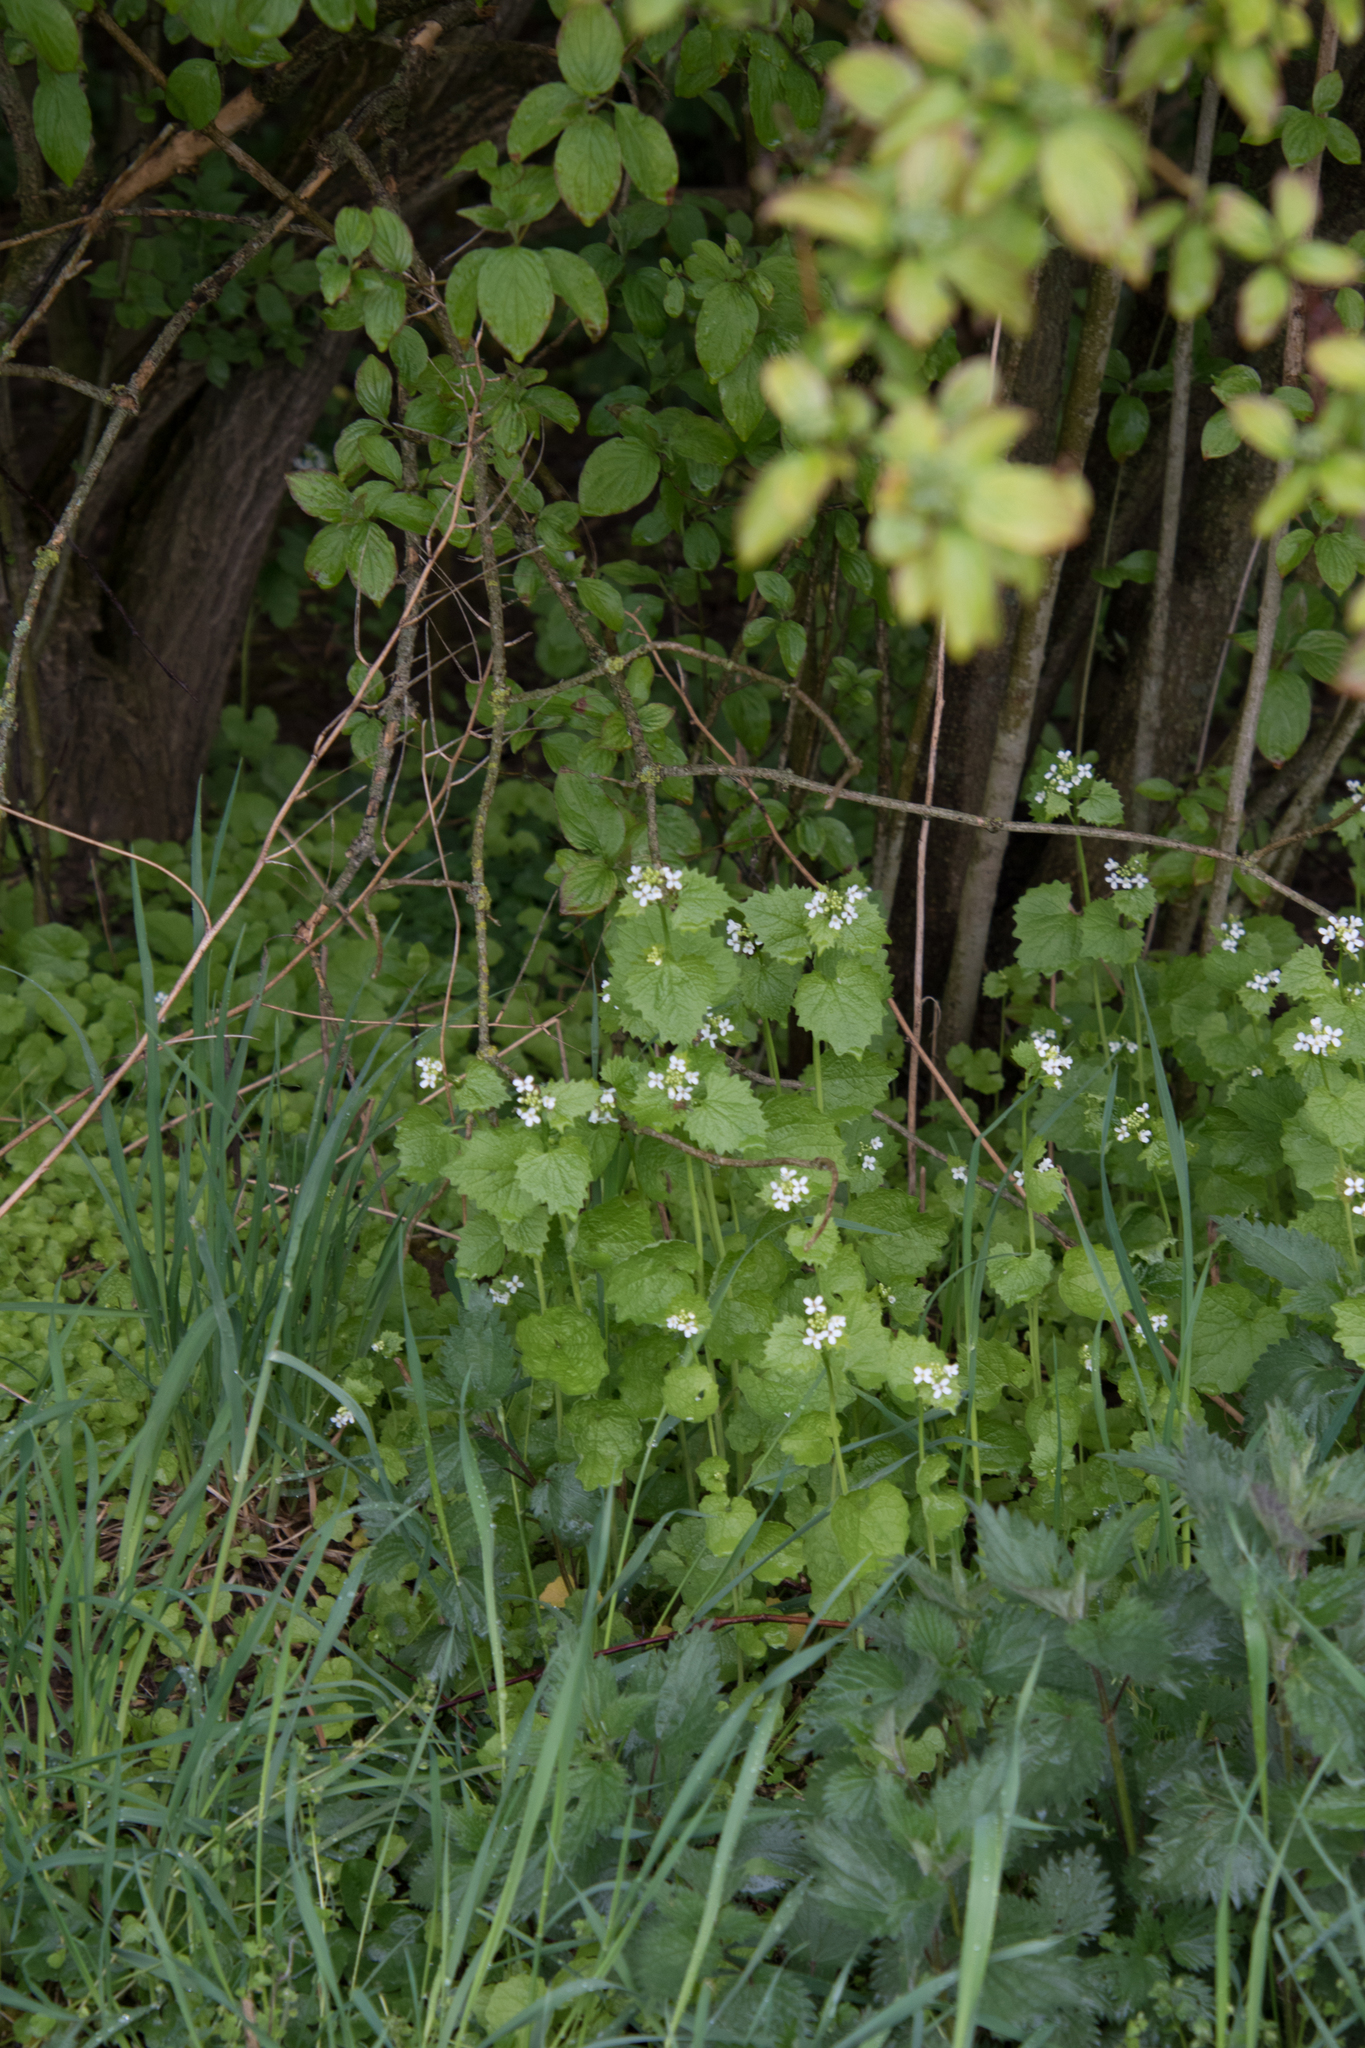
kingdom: Plantae
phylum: Tracheophyta
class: Magnoliopsida
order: Brassicales
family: Brassicaceae
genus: Alliaria
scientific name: Alliaria petiolata
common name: Garlic mustard
